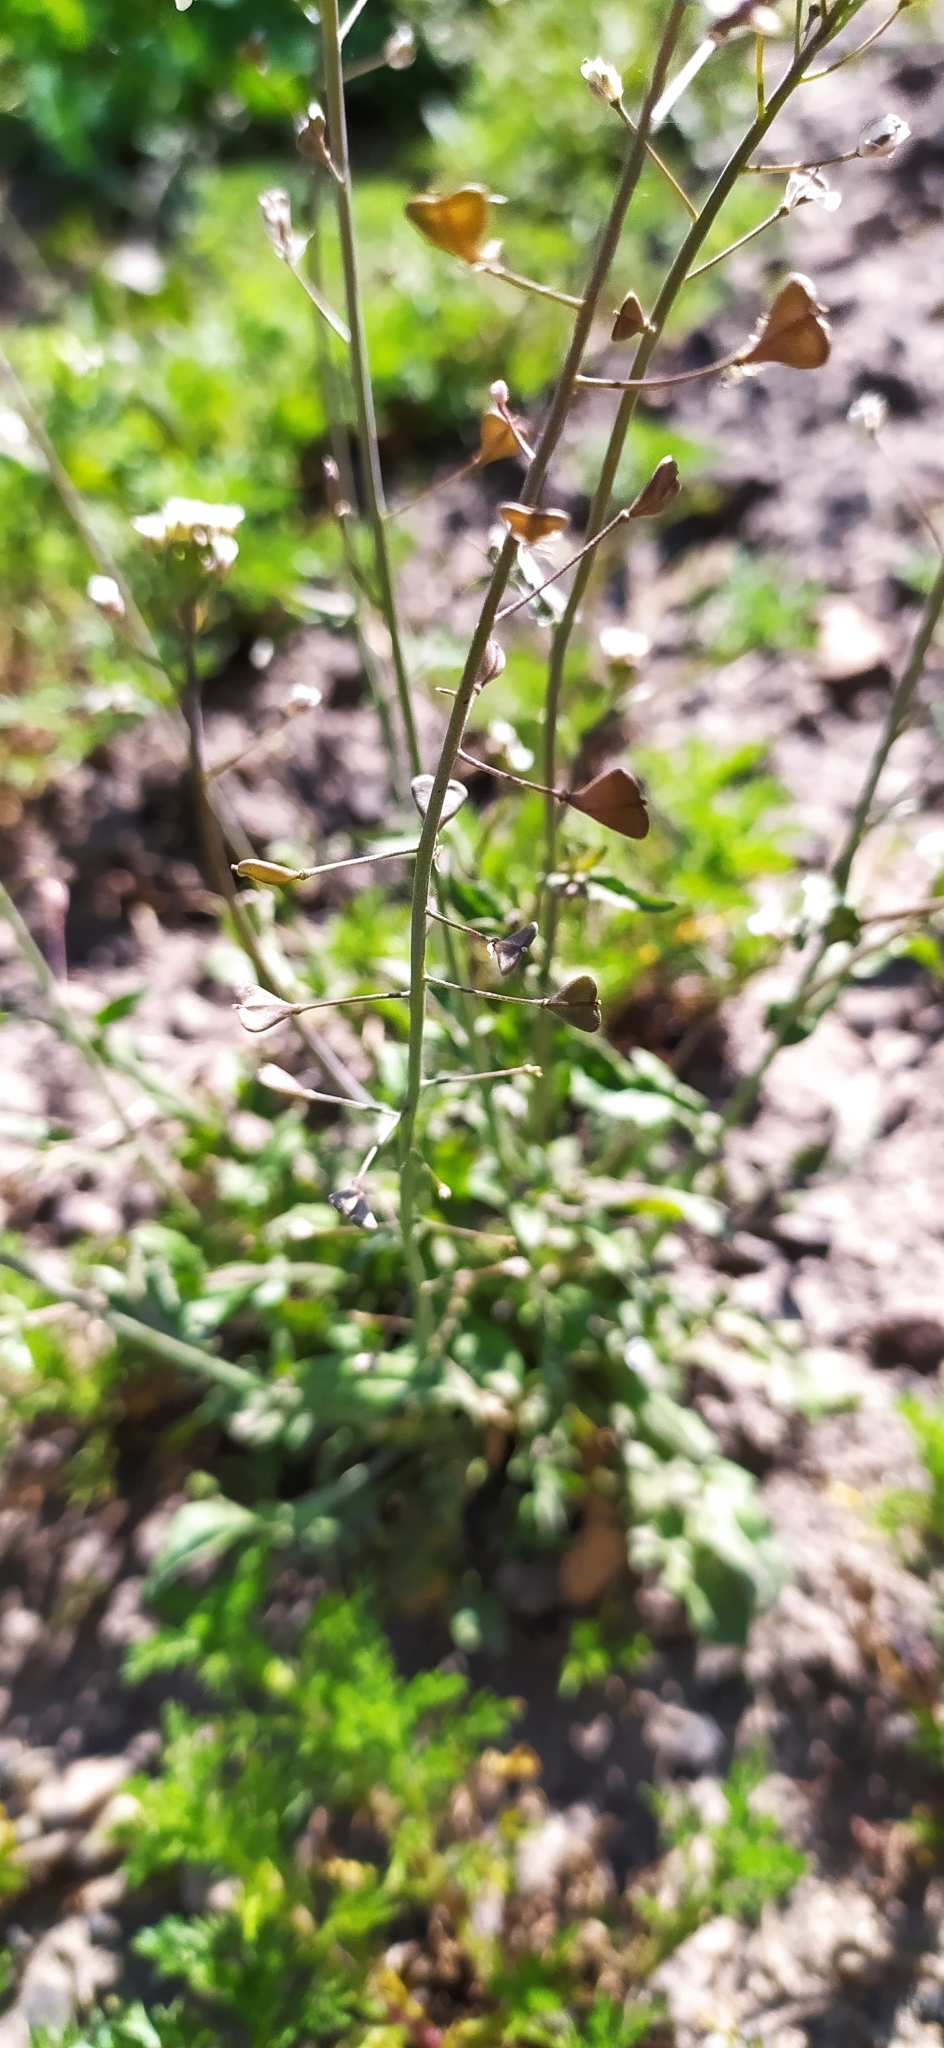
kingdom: Plantae
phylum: Tracheophyta
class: Magnoliopsida
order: Brassicales
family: Brassicaceae
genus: Capsella
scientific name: Capsella bursa-pastoris
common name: Shepherd's purse
